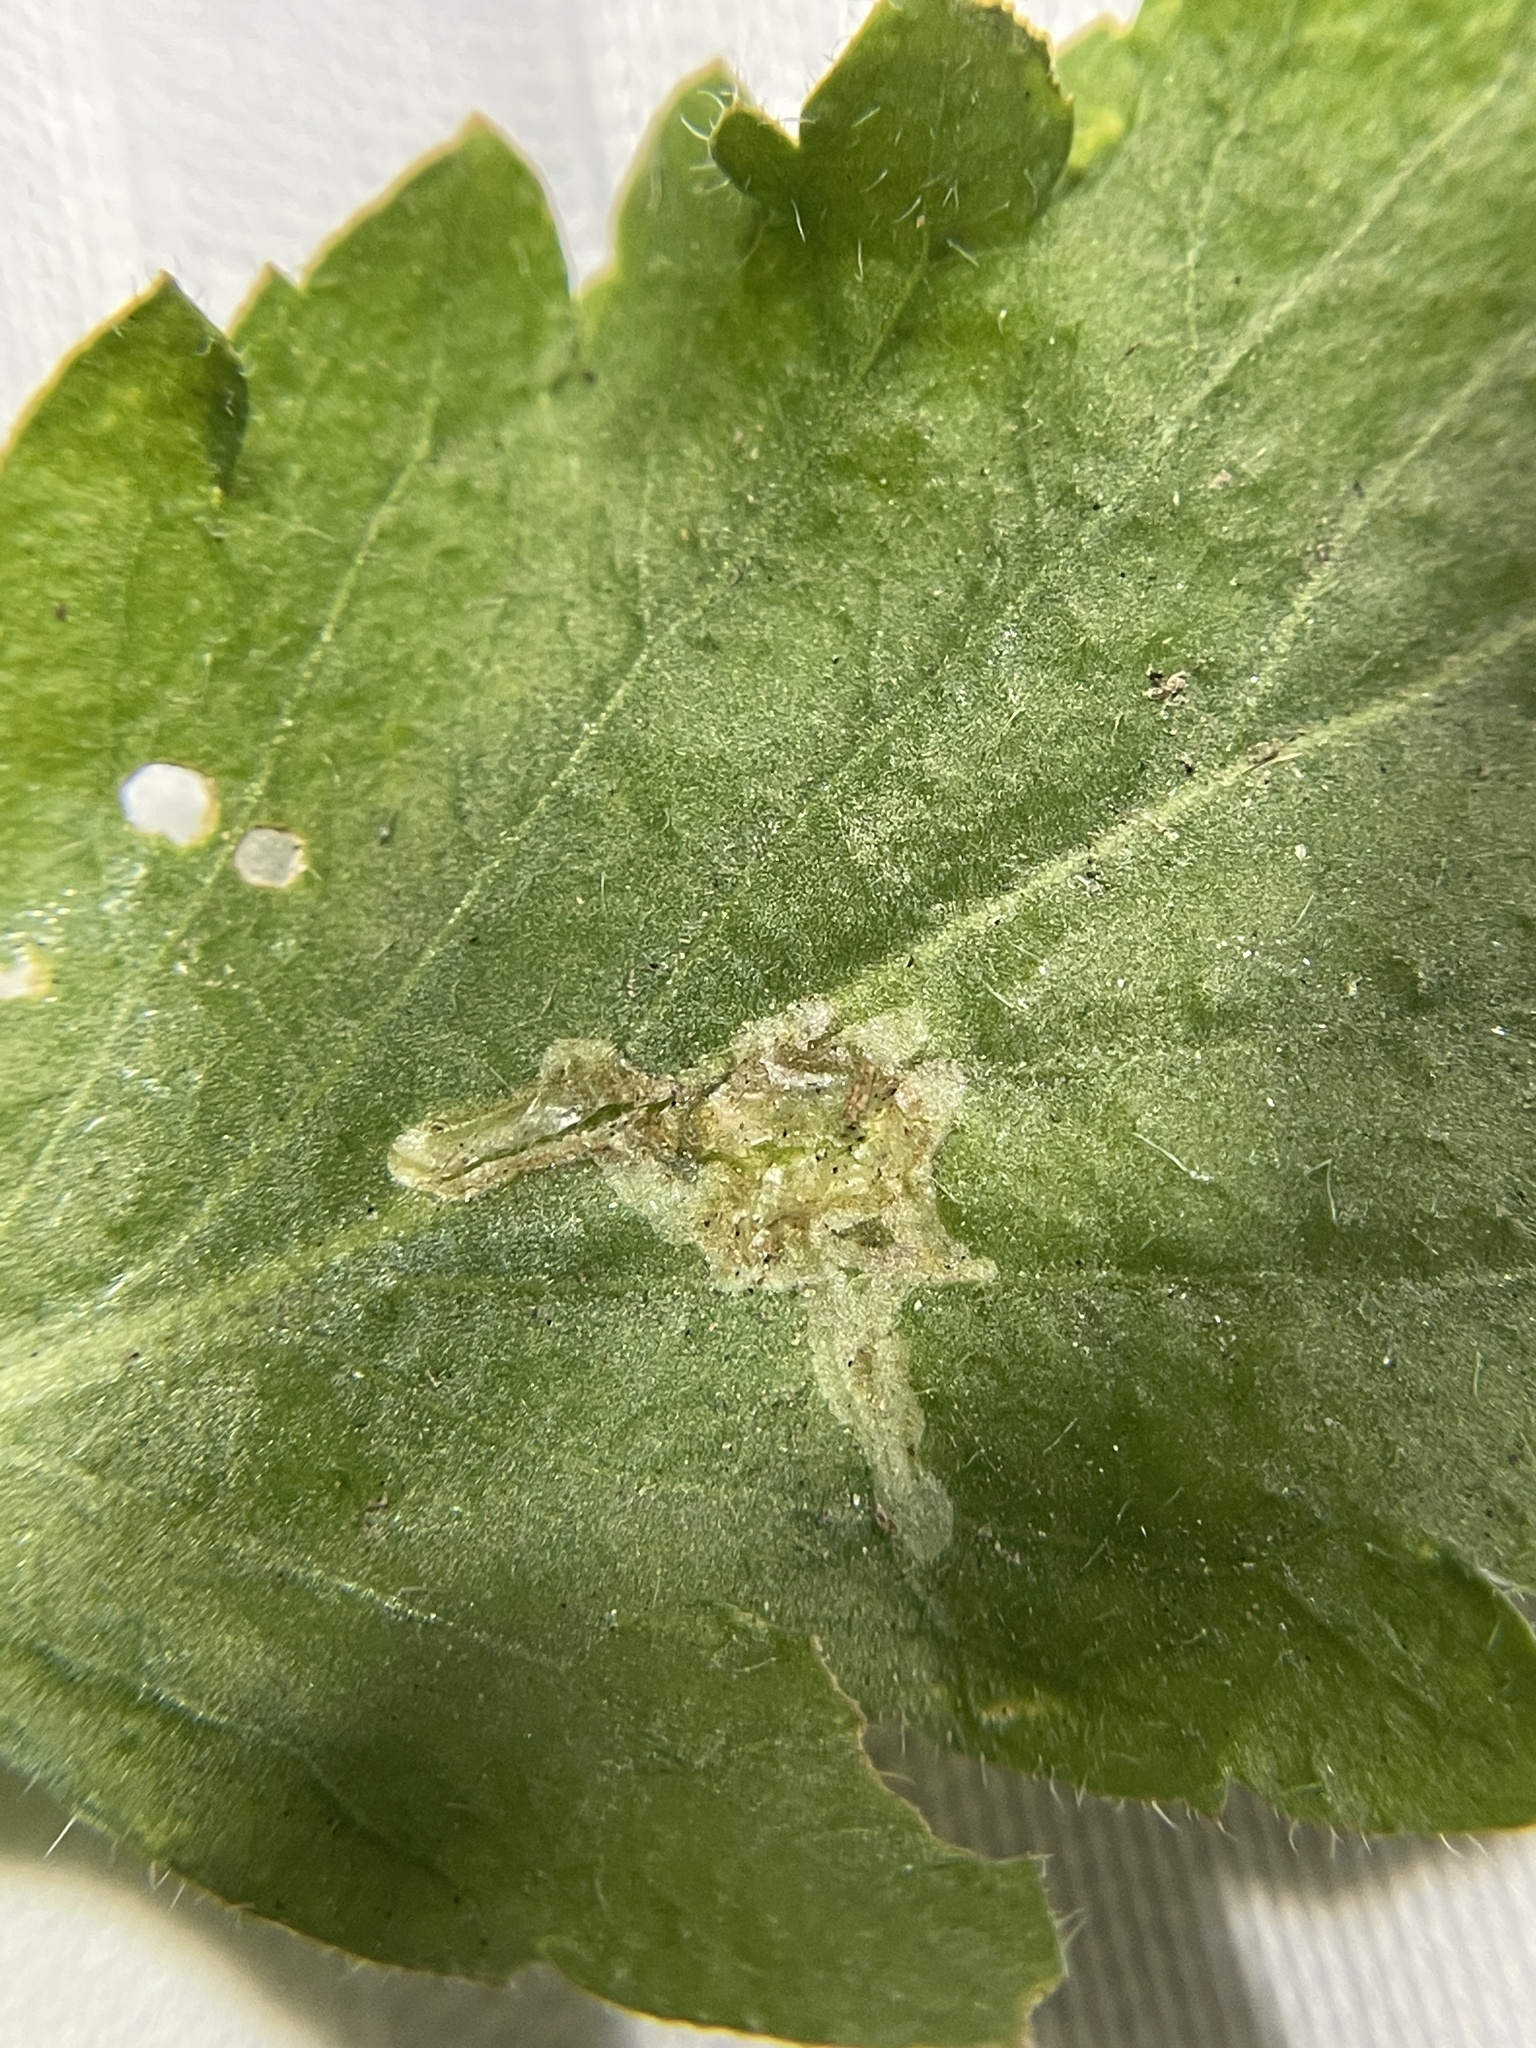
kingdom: Animalia
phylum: Arthropoda
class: Insecta
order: Diptera
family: Agromyzidae
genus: Liriomyza
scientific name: Liriomyza brassicae
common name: Serpentine leaf miner
